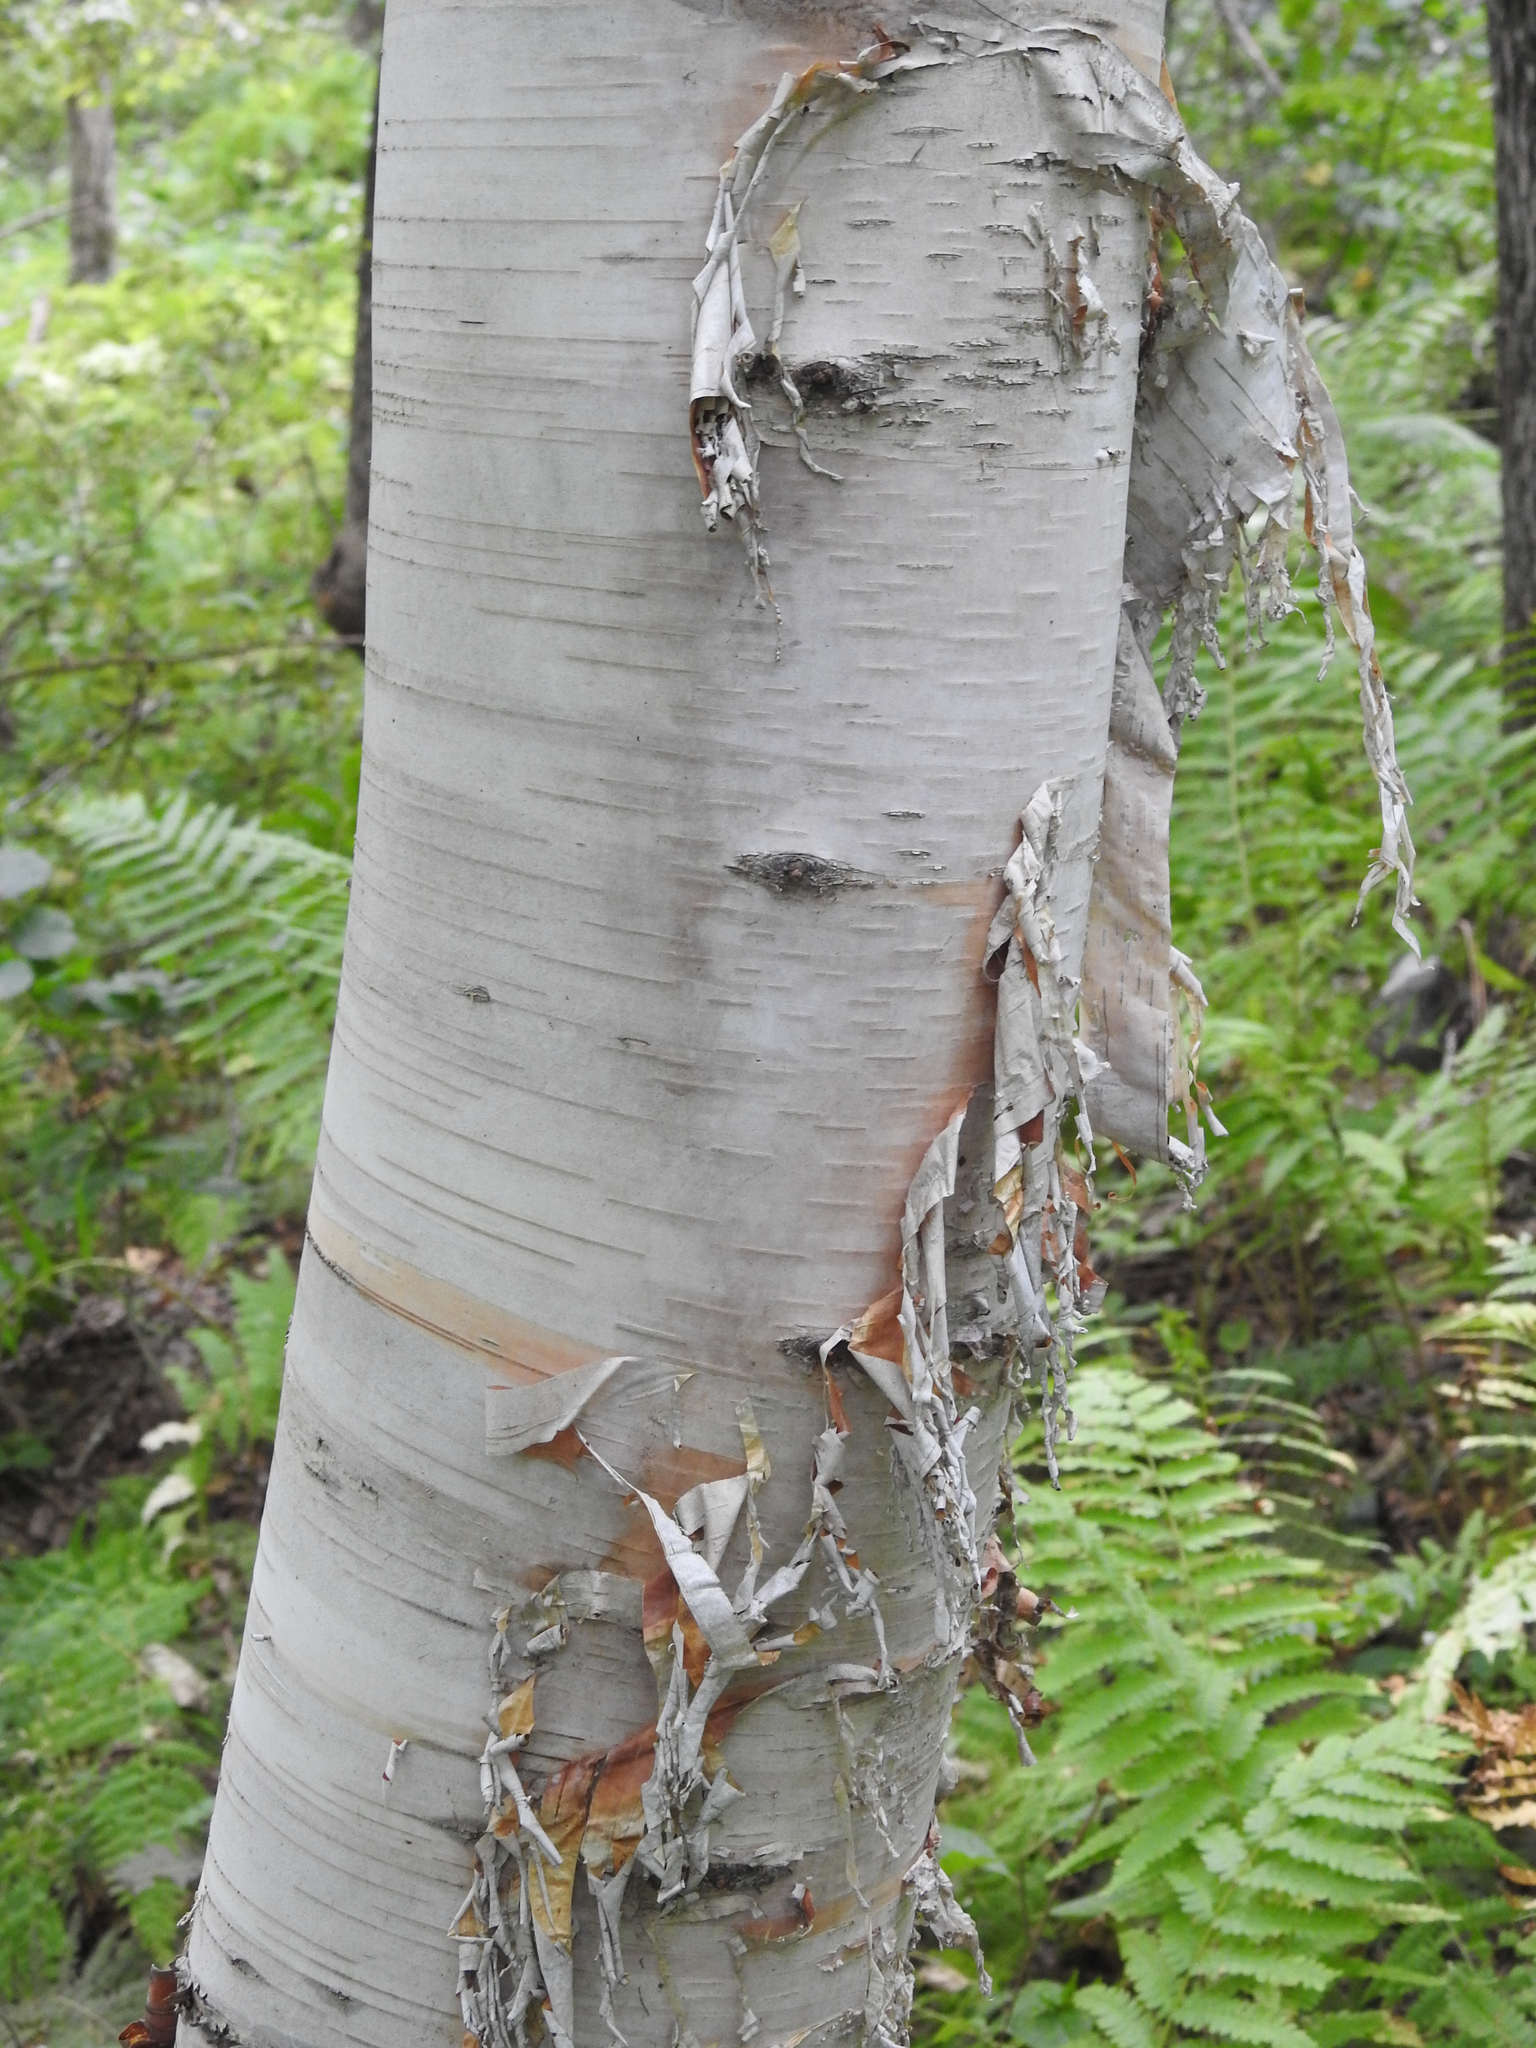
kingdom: Plantae
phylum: Tracheophyta
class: Magnoliopsida
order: Fagales
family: Betulaceae
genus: Betula
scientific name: Betula papyrifera
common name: Paper birch
